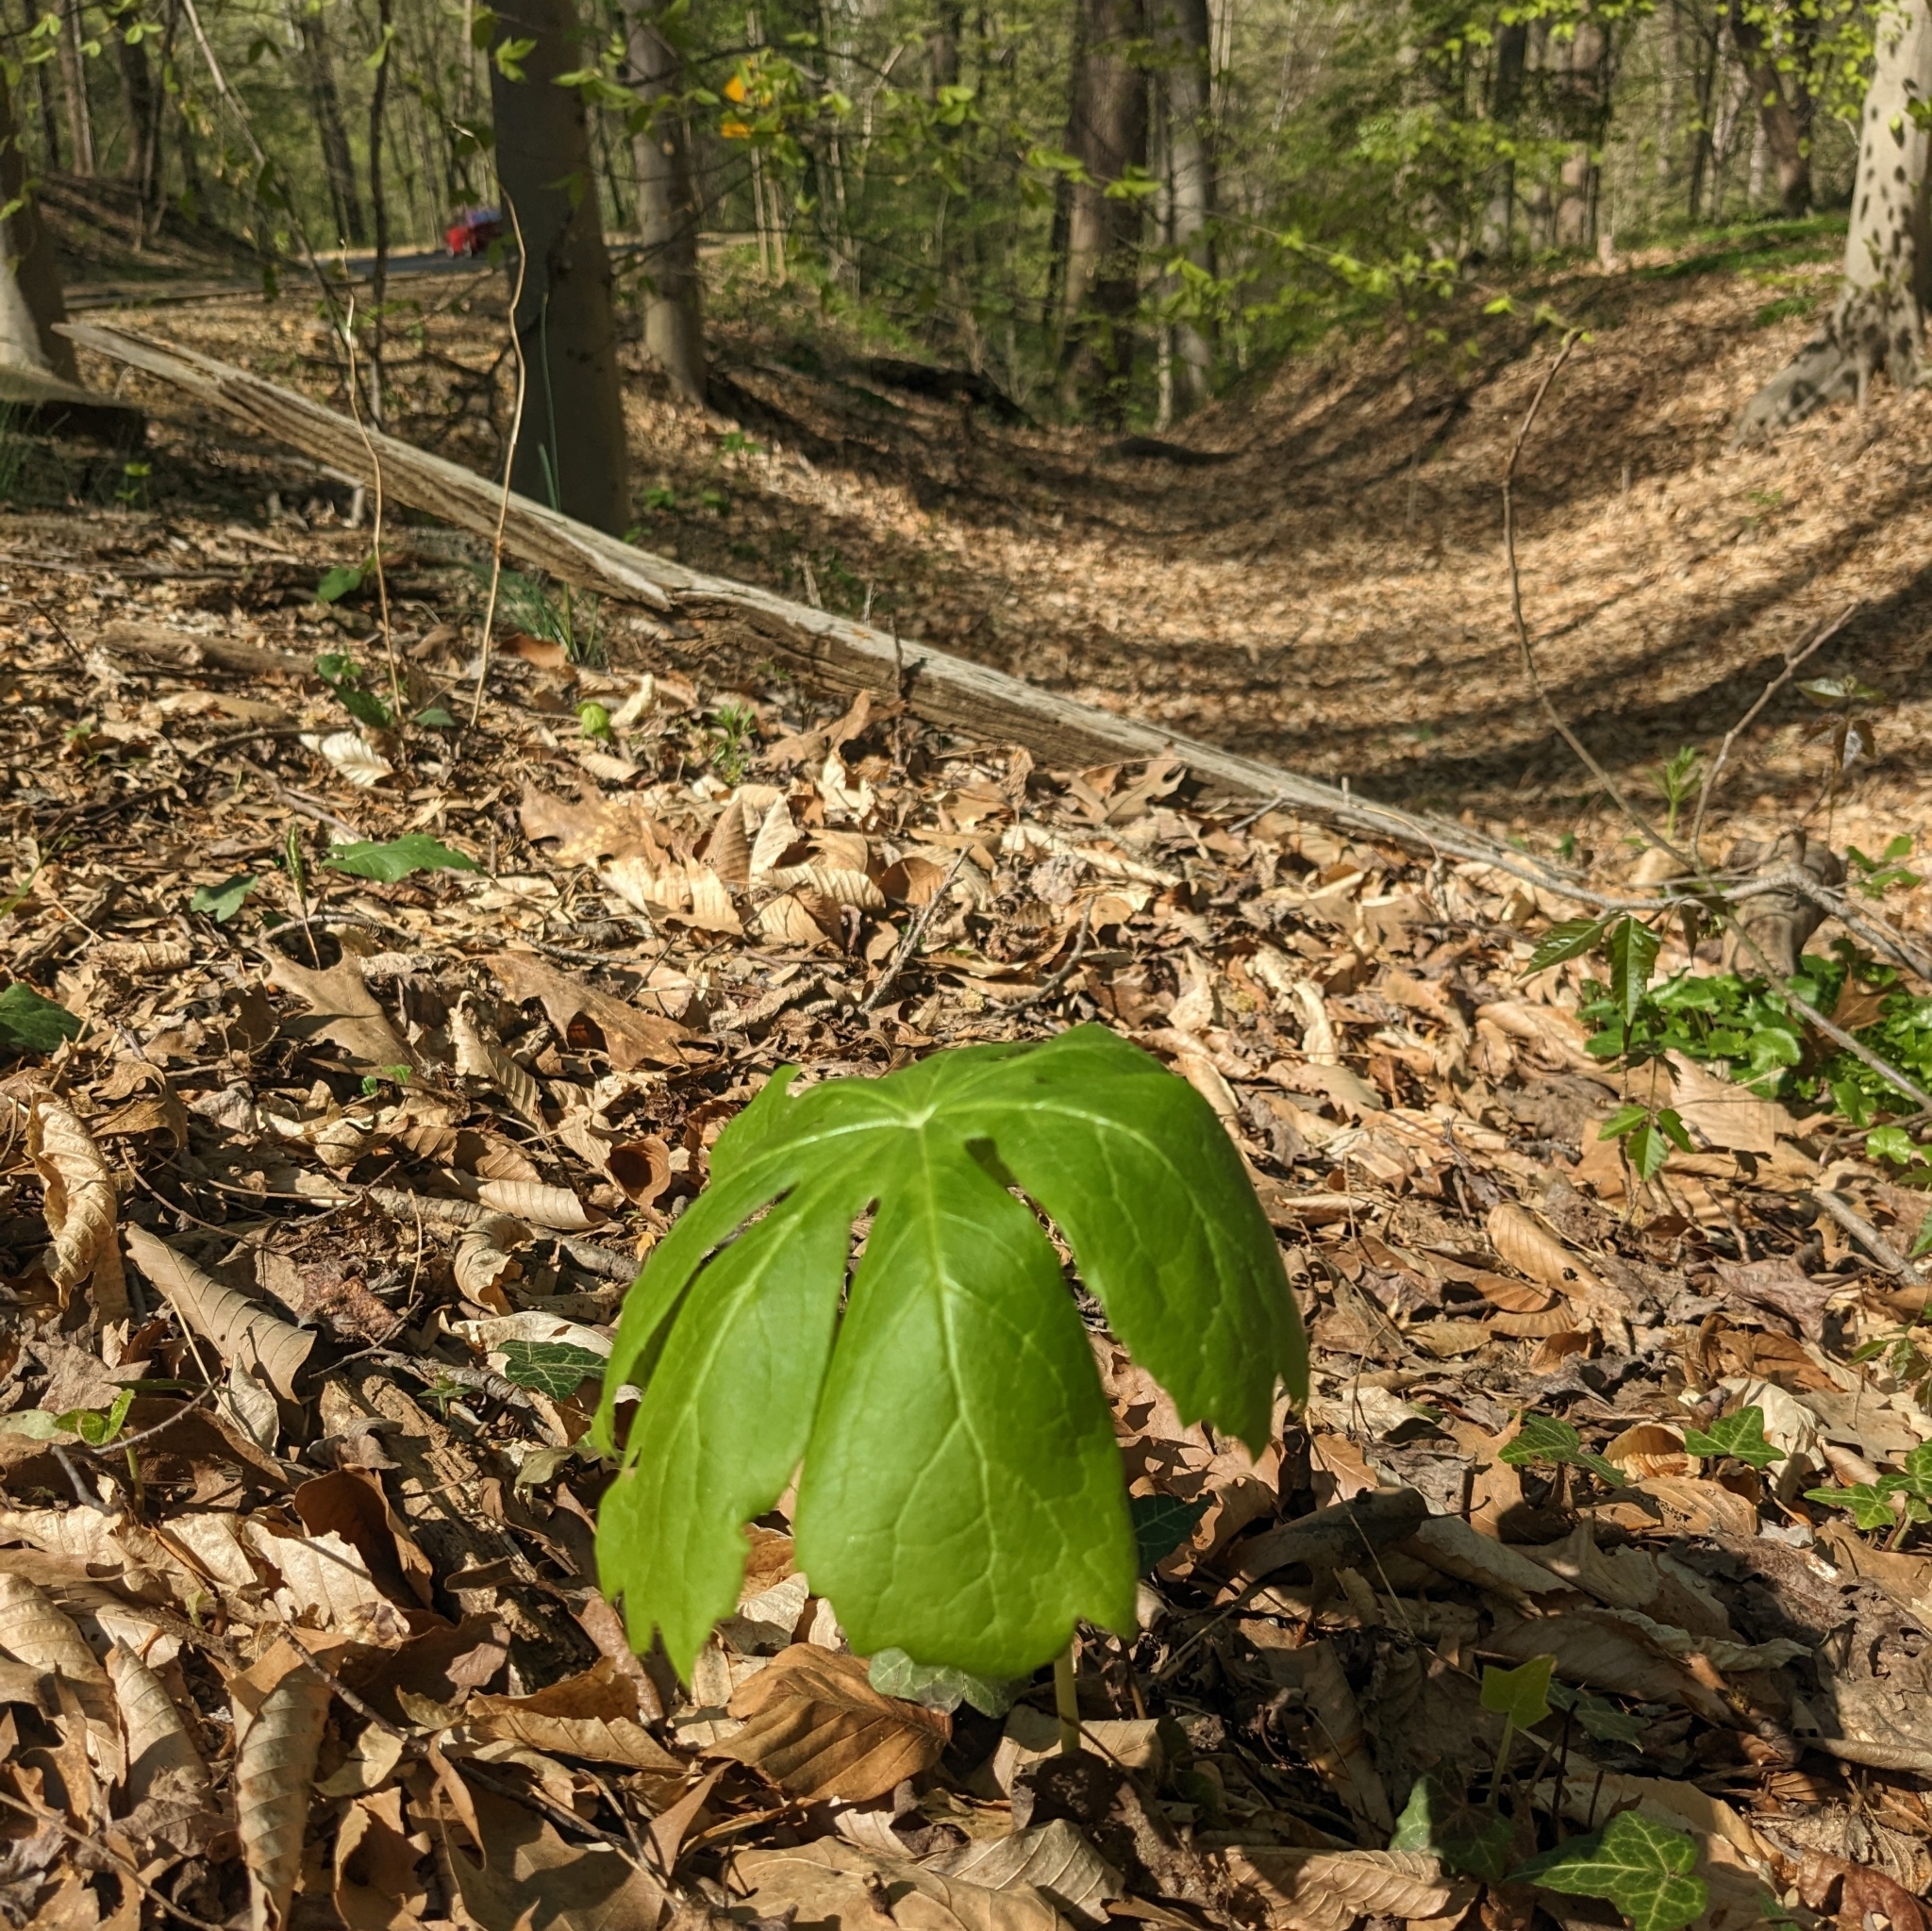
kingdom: Plantae
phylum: Tracheophyta
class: Magnoliopsida
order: Ranunculales
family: Berberidaceae
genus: Podophyllum
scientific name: Podophyllum peltatum
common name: Wild mandrake
